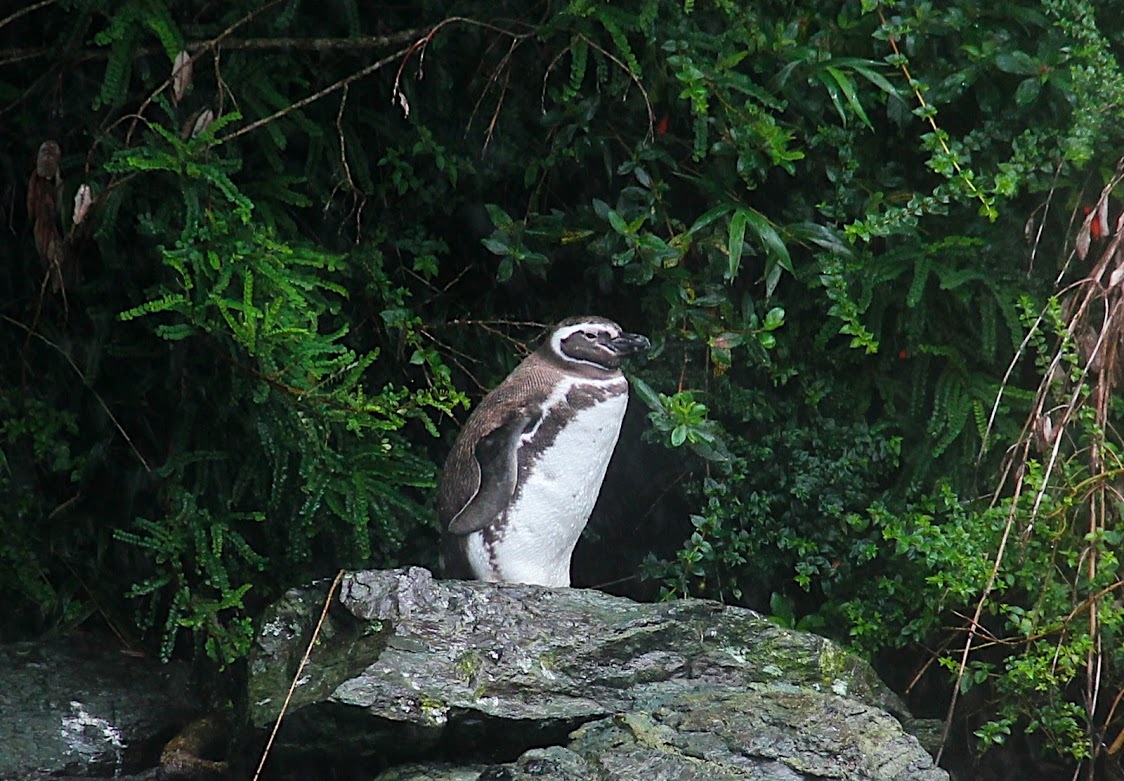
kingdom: Animalia
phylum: Chordata
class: Aves
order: Sphenisciformes
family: Spheniscidae
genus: Spheniscus
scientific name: Spheniscus magellanicus
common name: Magellanic penguin
